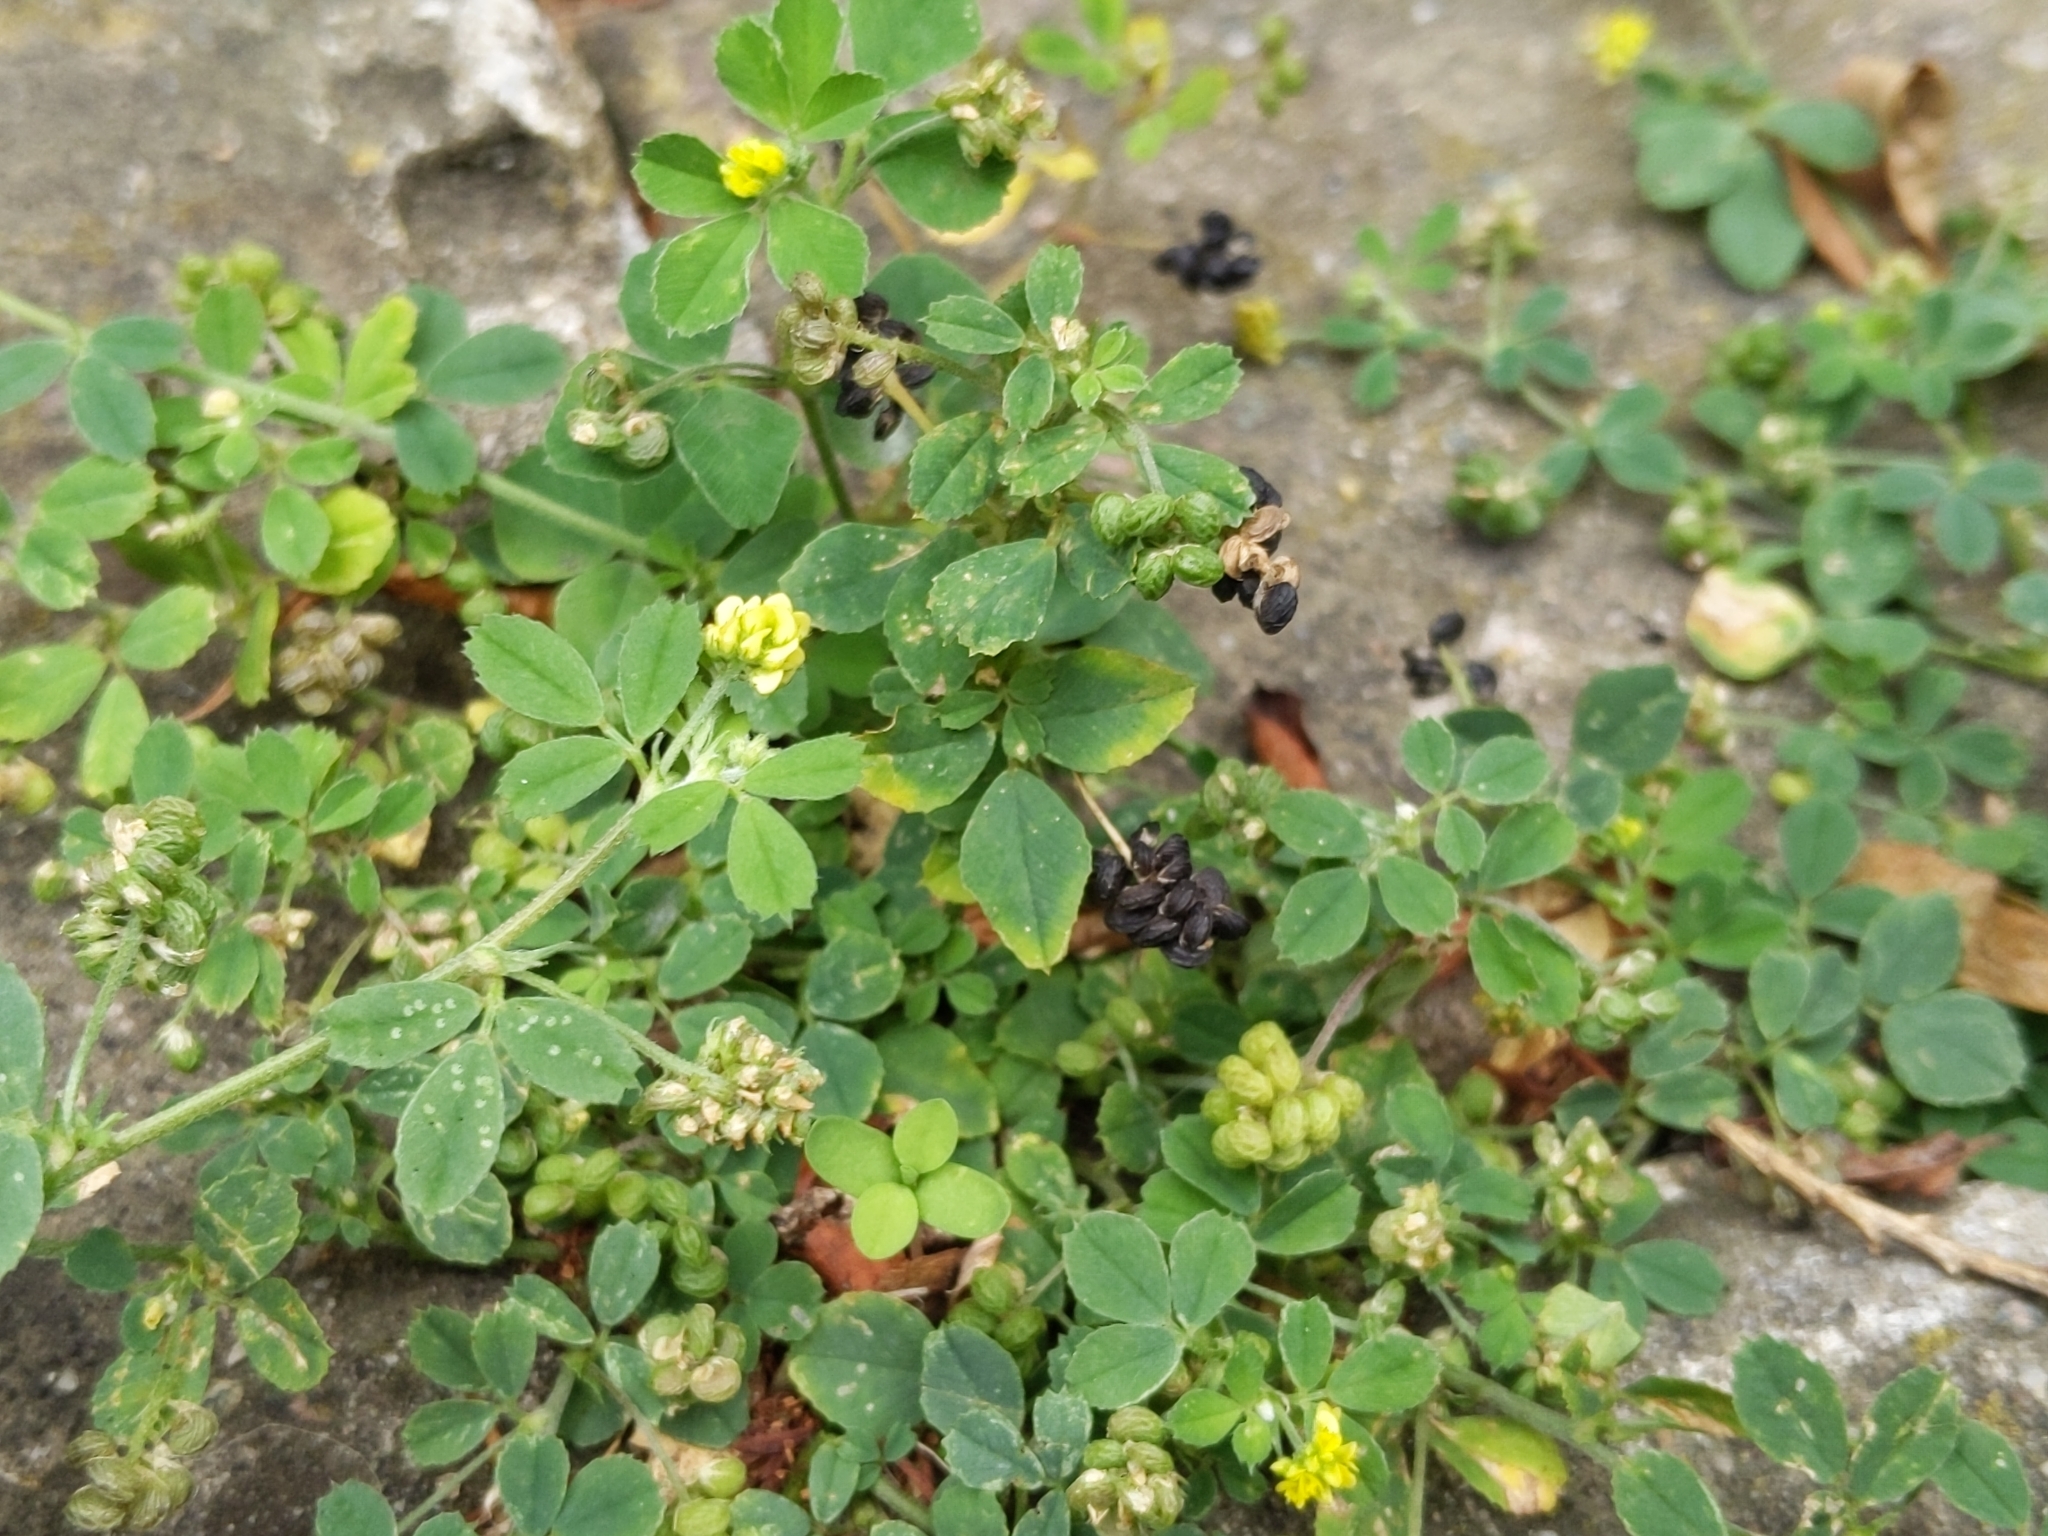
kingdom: Plantae
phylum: Tracheophyta
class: Magnoliopsida
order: Fabales
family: Fabaceae
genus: Medicago
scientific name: Medicago lupulina
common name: Black medick
